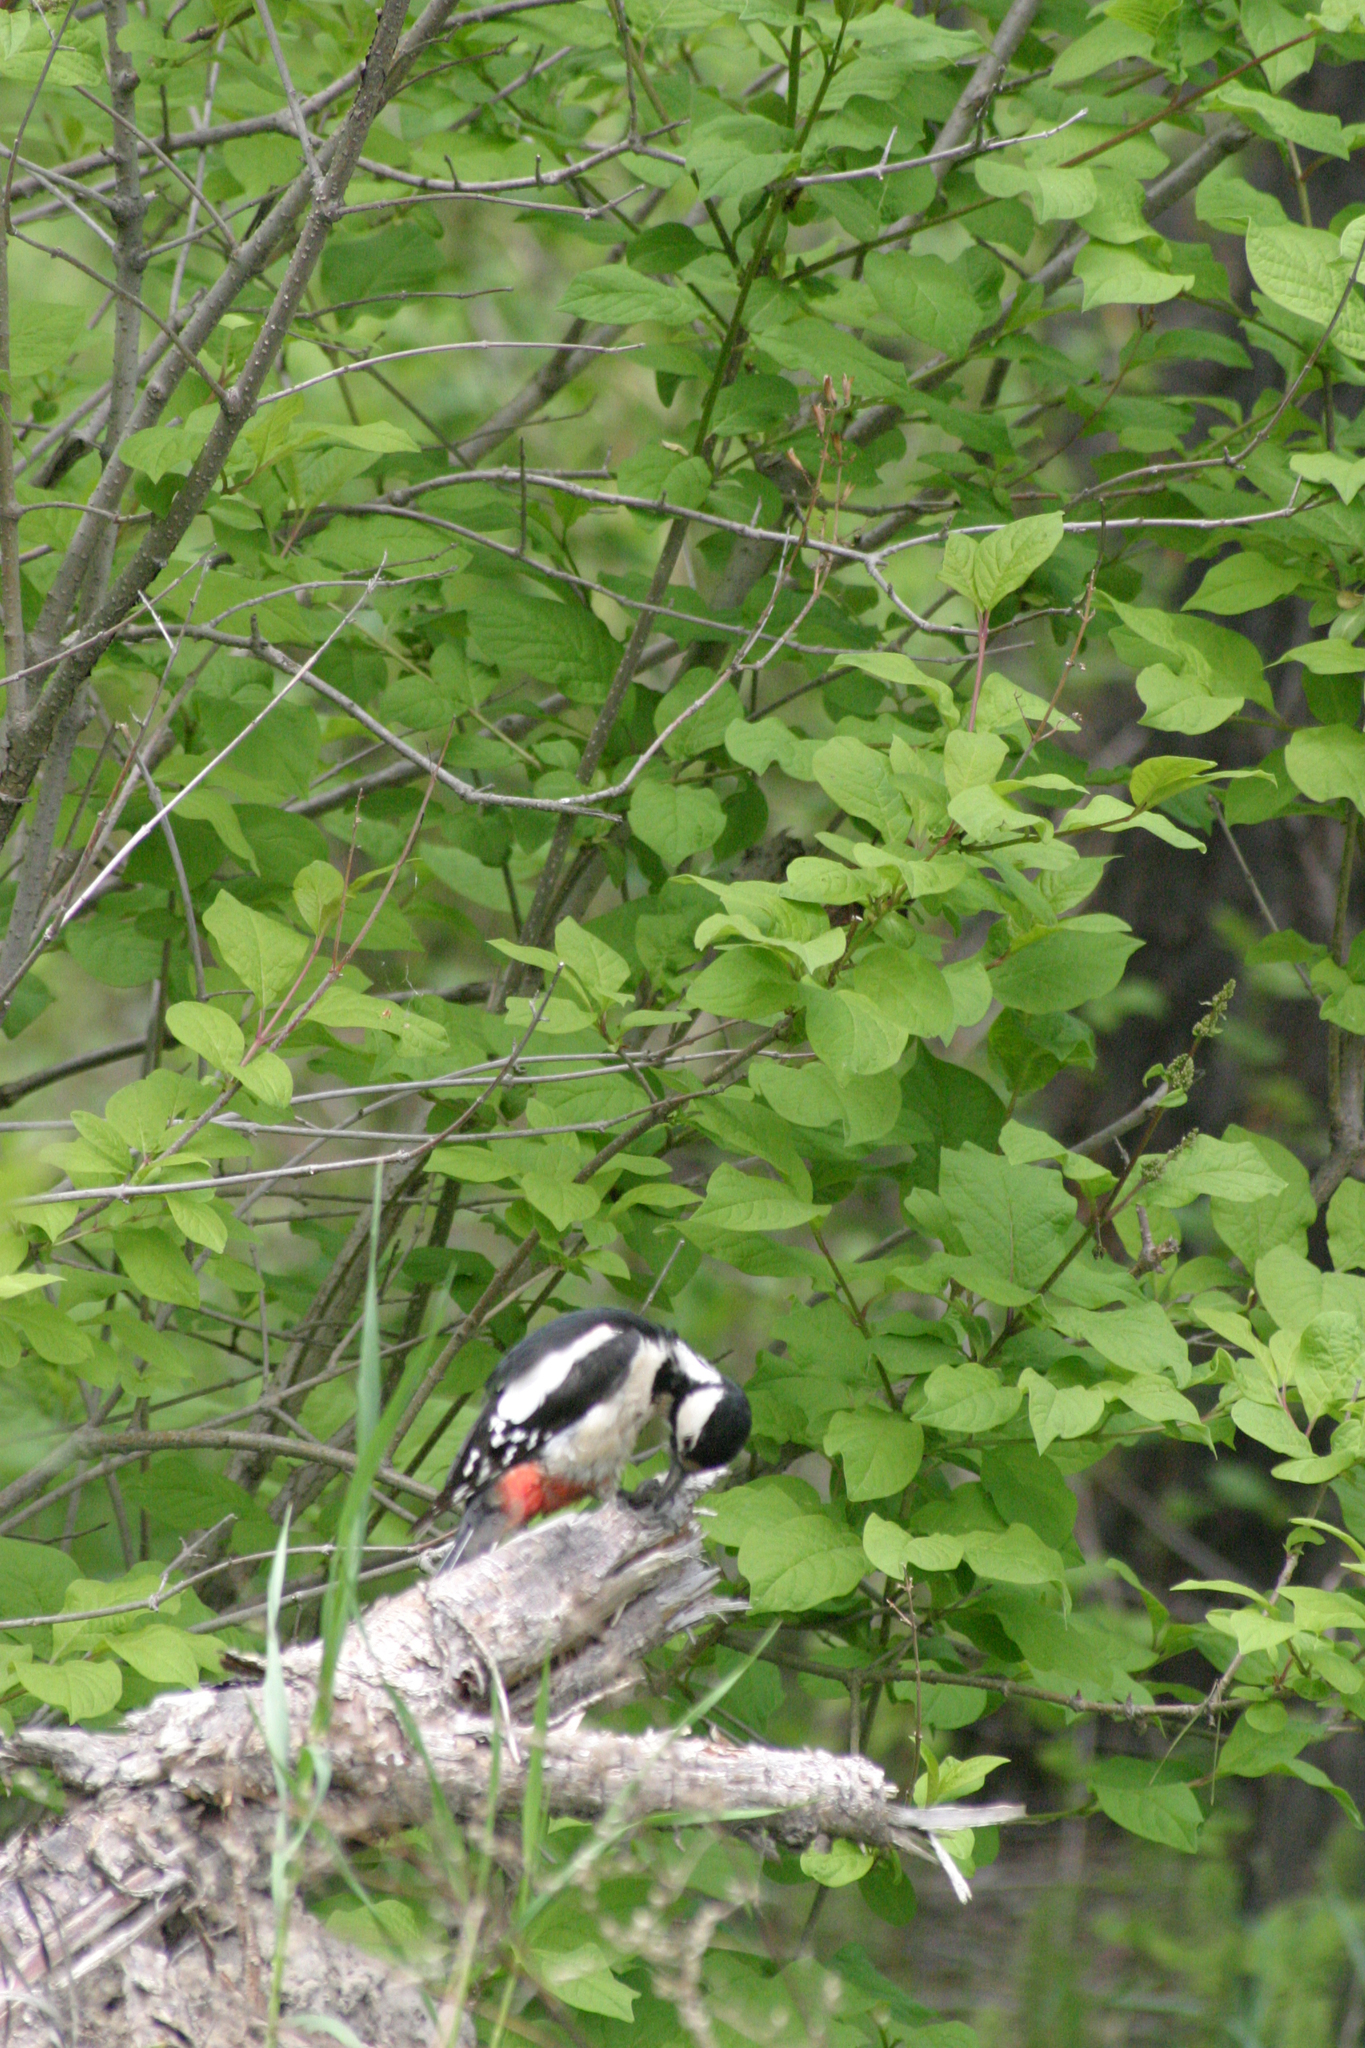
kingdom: Animalia
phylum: Chordata
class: Aves
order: Piciformes
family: Picidae
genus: Dendrocopos
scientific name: Dendrocopos major
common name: Great spotted woodpecker
